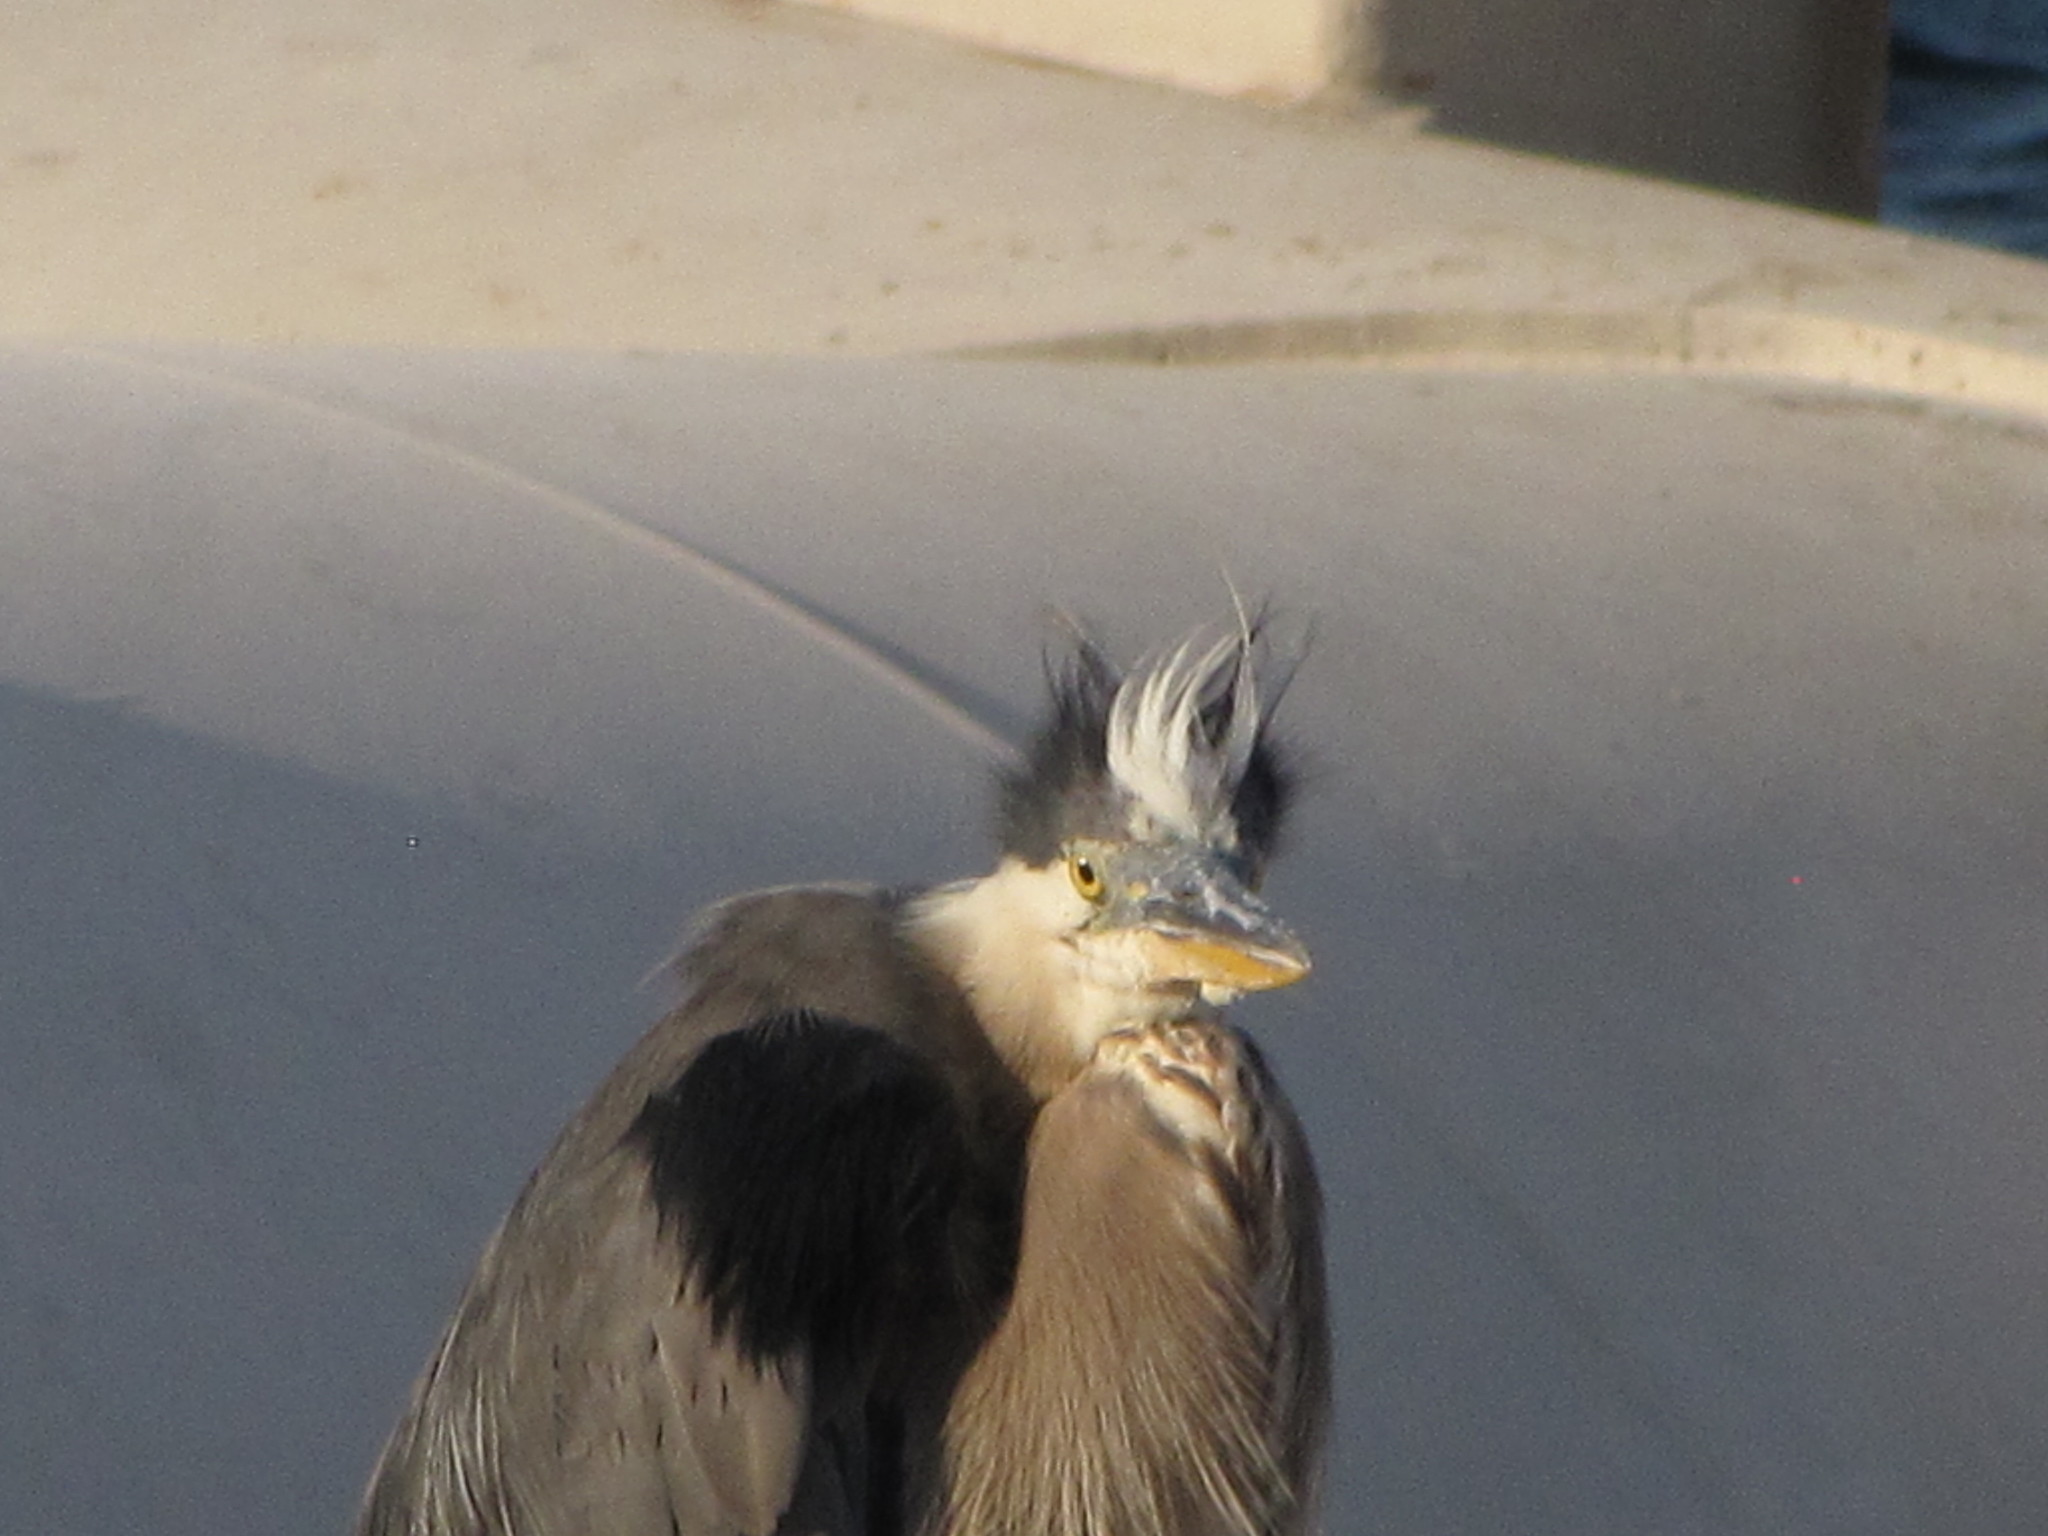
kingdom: Animalia
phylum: Chordata
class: Aves
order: Pelecaniformes
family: Ardeidae
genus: Ardea
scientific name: Ardea herodias
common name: Great blue heron
